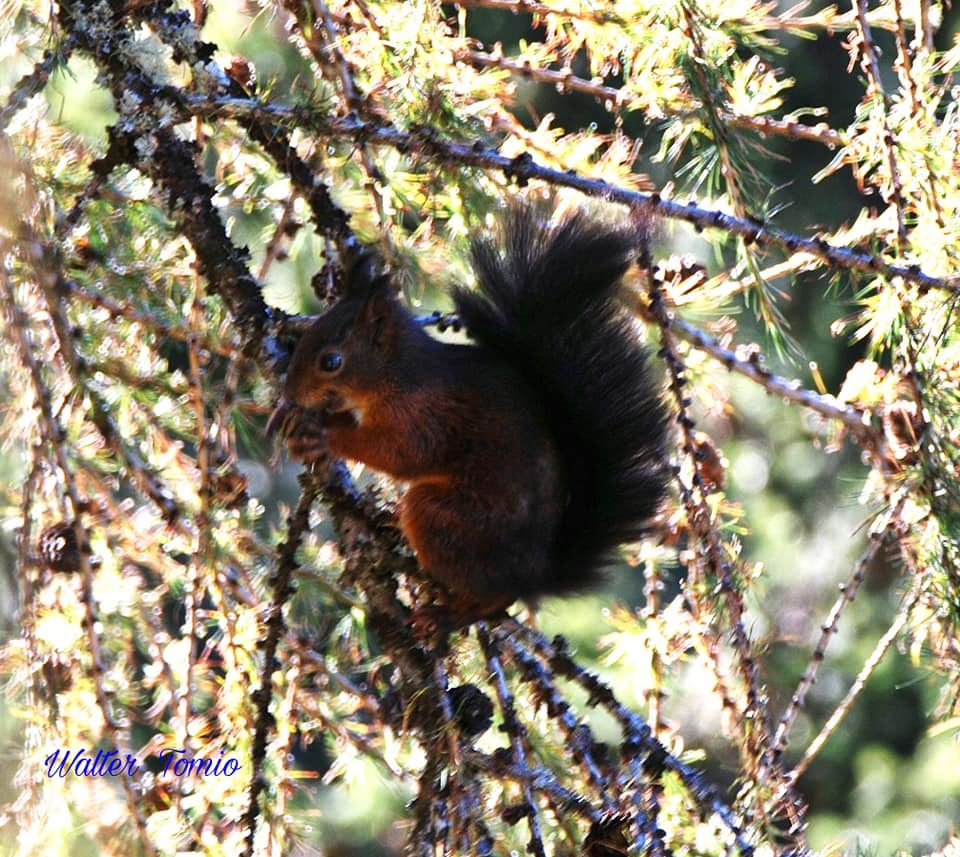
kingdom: Animalia
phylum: Chordata
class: Mammalia
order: Rodentia
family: Sciuridae
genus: Sciurus
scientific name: Sciurus vulgaris
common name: Eurasian red squirrel
